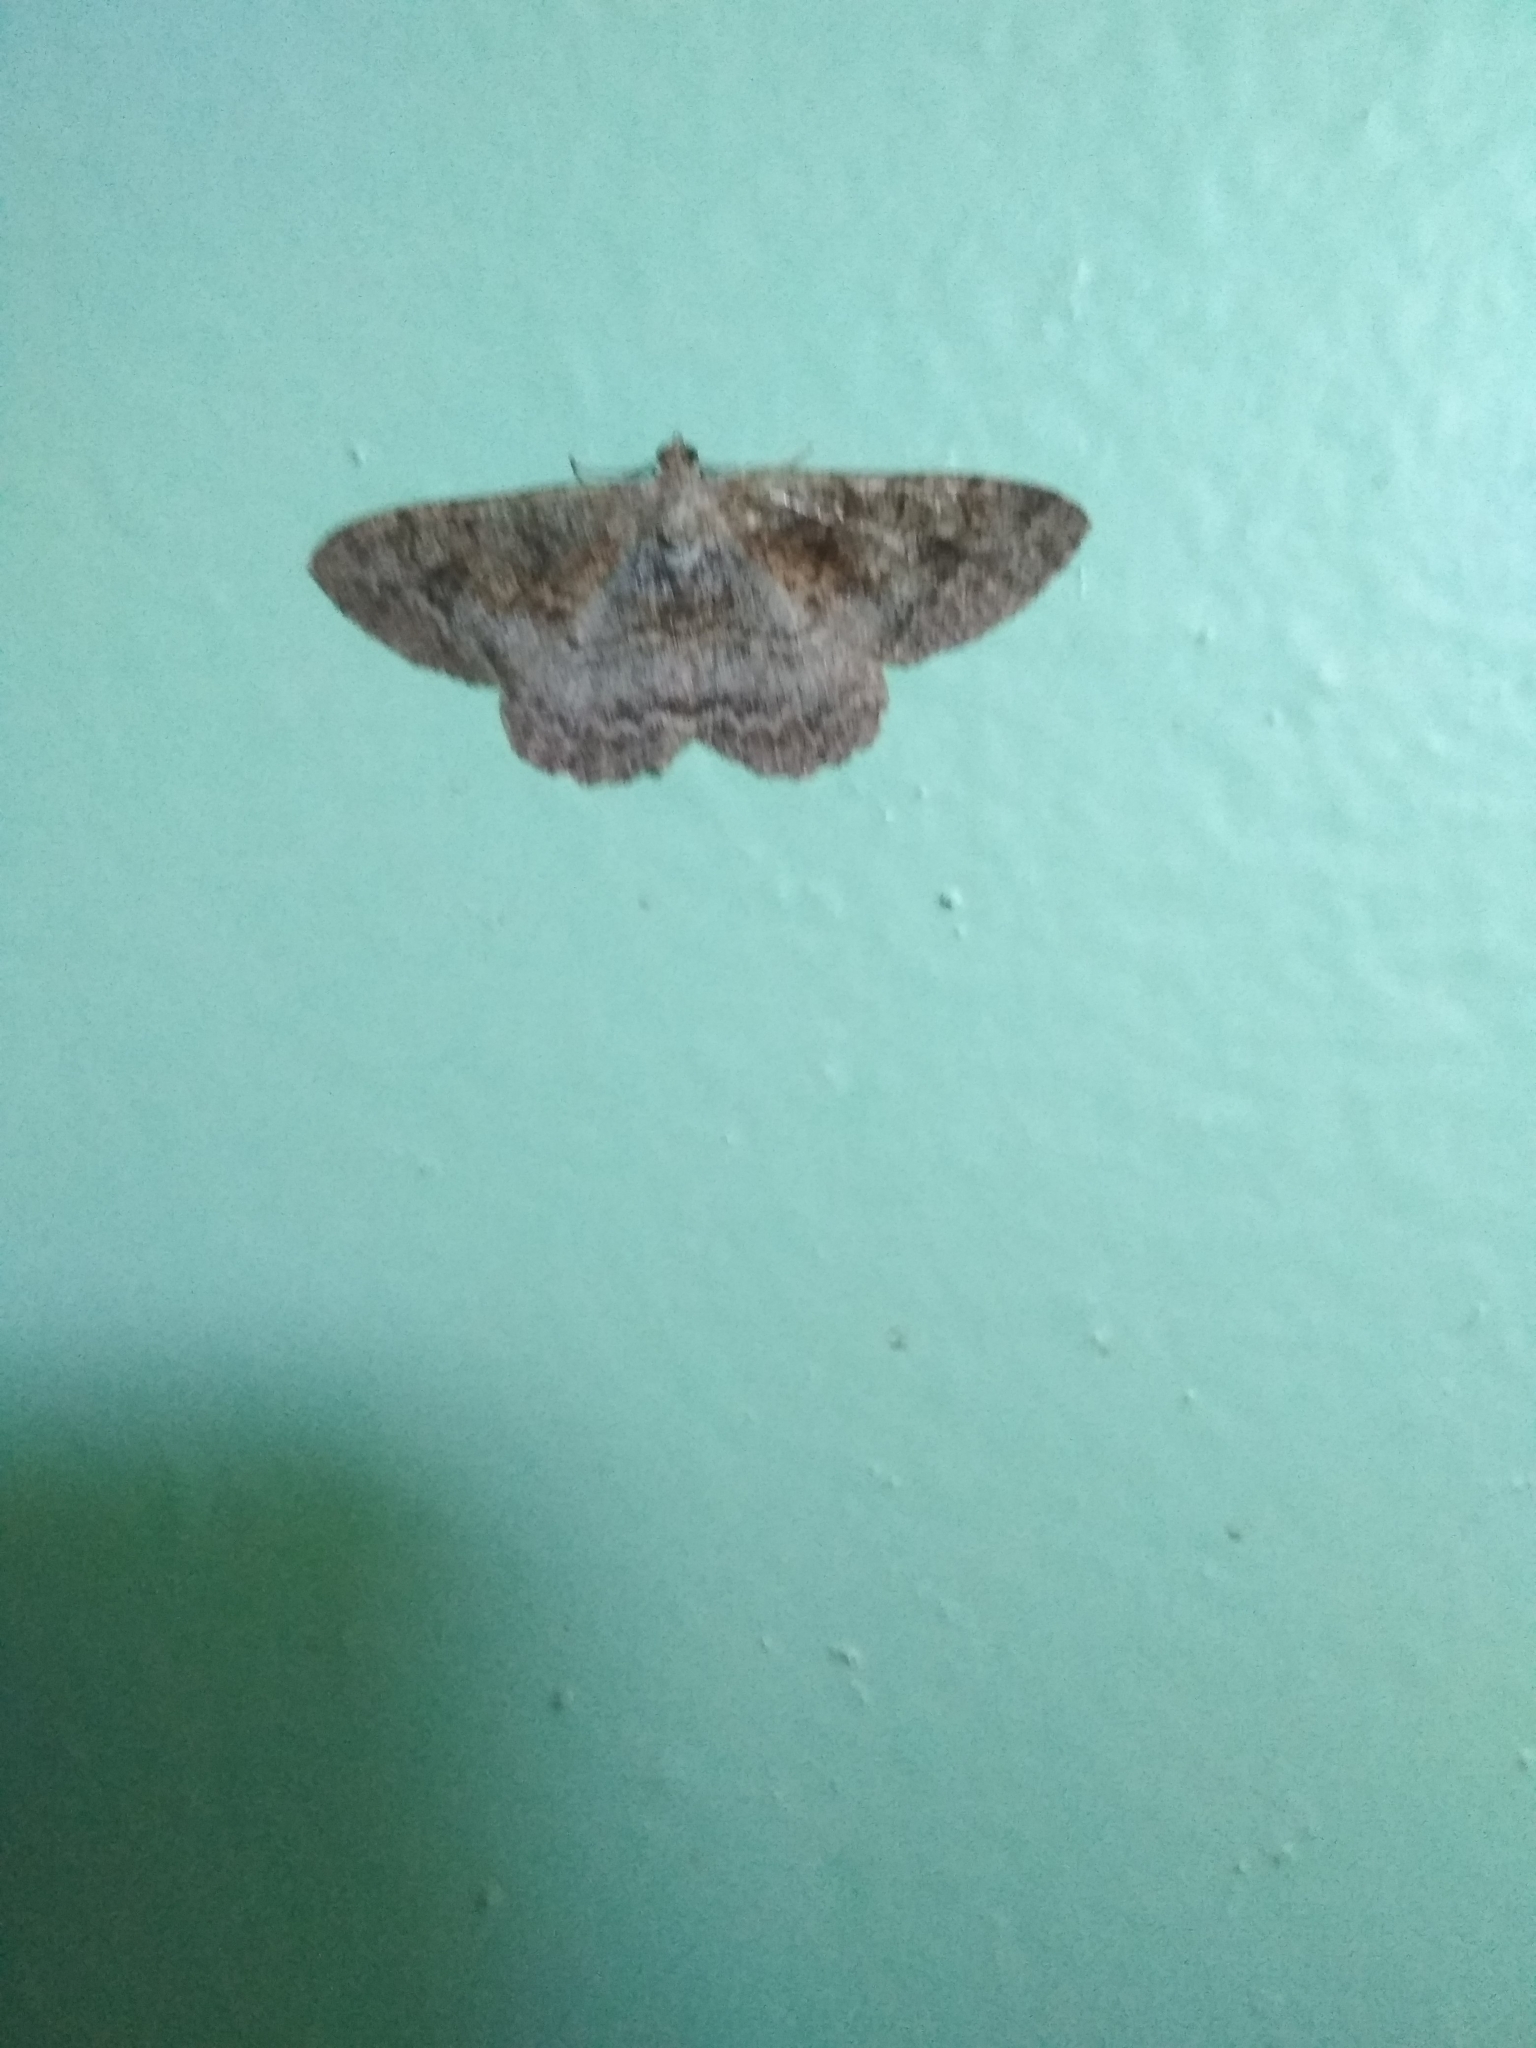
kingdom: Animalia
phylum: Arthropoda
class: Insecta
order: Lepidoptera
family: Geometridae
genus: Alcis
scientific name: Alcis repandata
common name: Mottled beauty
